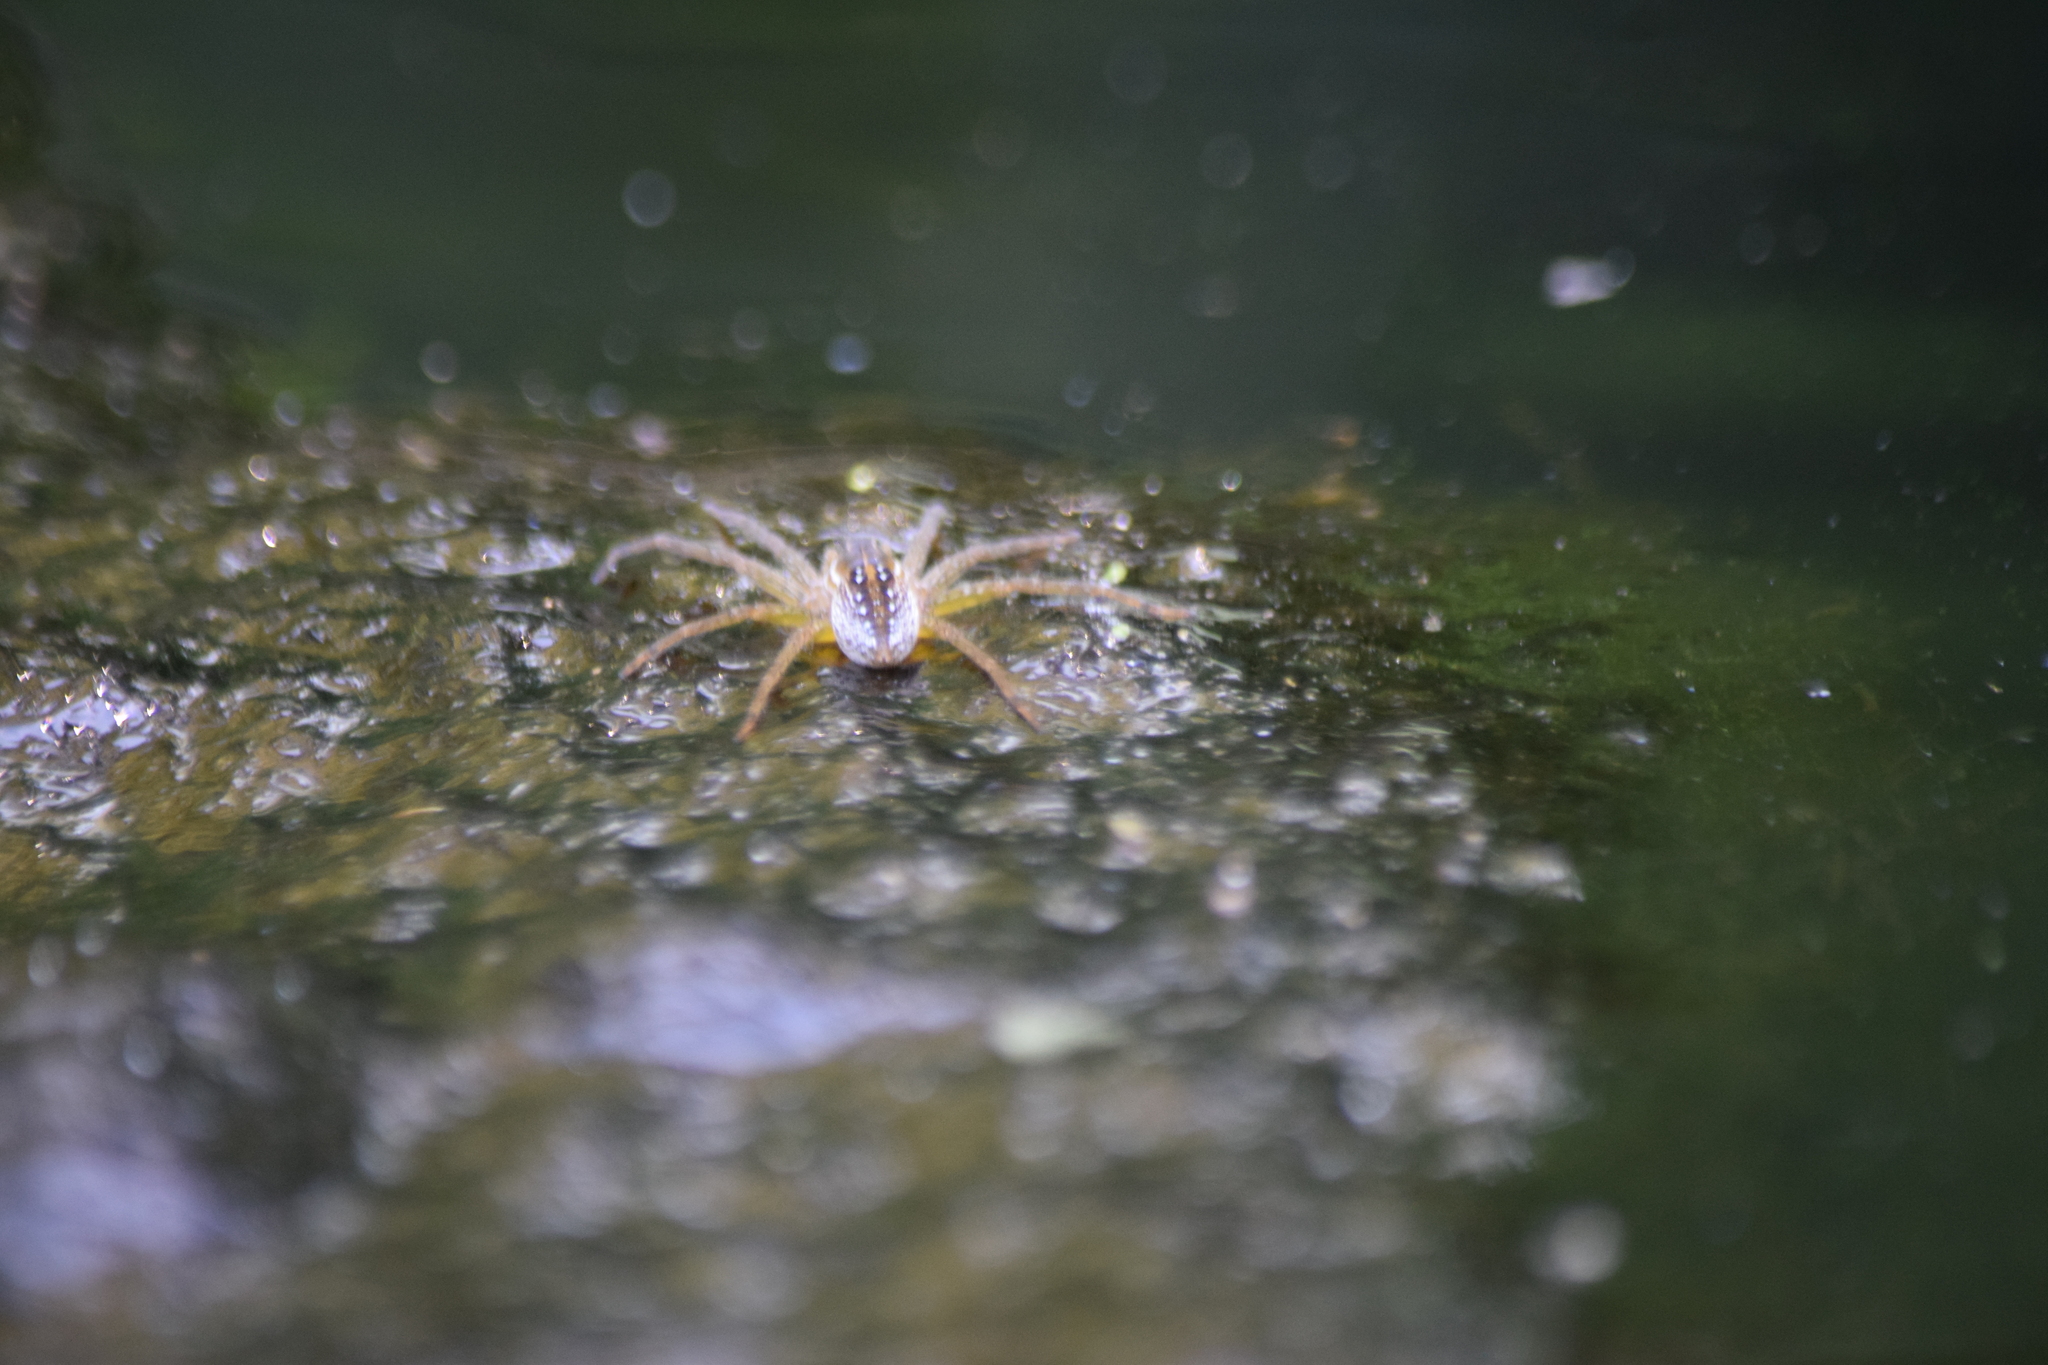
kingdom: Animalia
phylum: Arthropoda
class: Arachnida
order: Araneae
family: Pisauridae
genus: Dolomedes
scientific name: Dolomedes triton
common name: Six-spotted fishing spider
